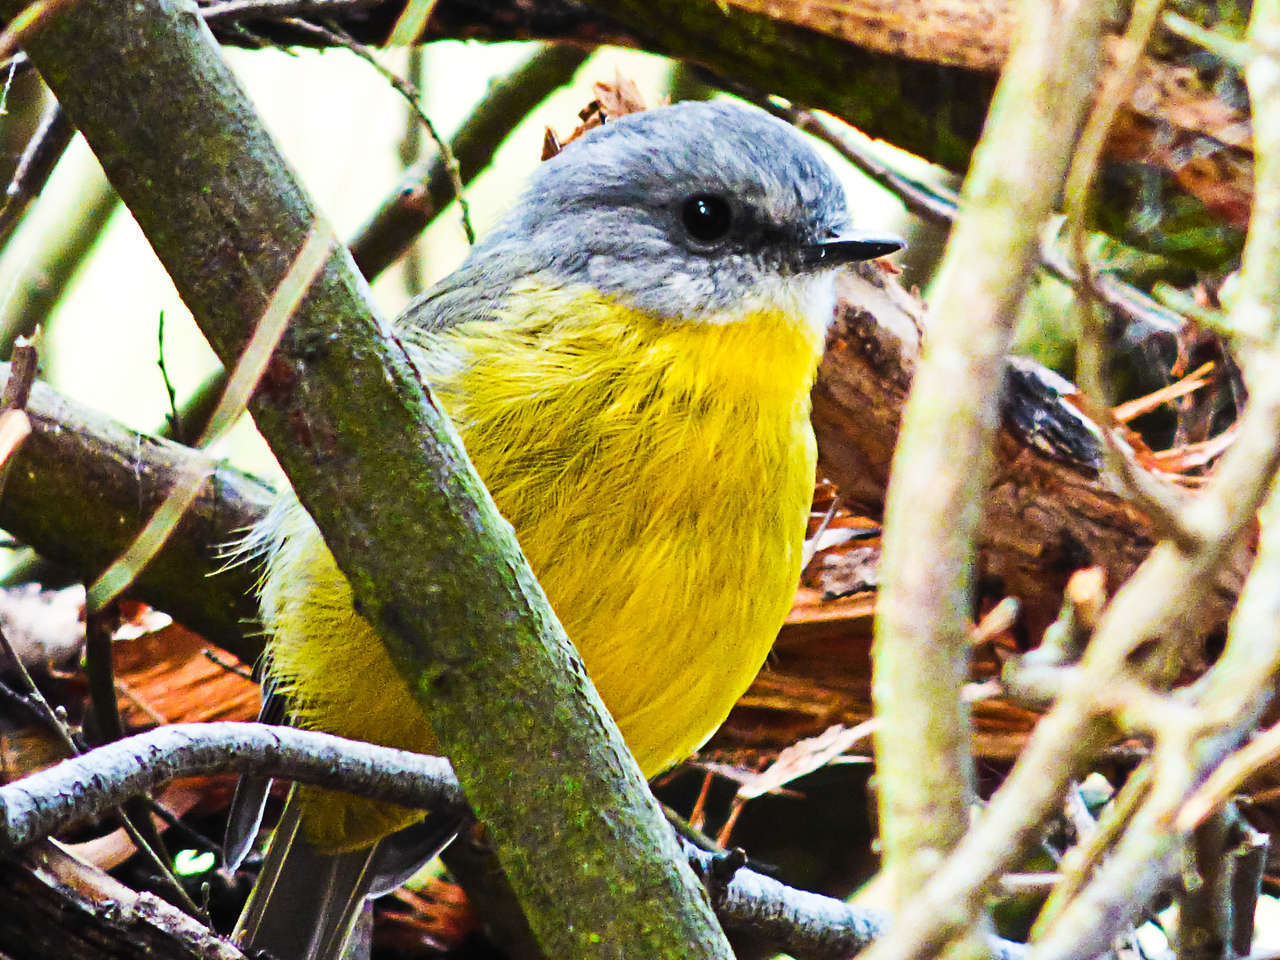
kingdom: Animalia
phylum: Chordata
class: Aves
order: Passeriformes
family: Petroicidae
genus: Eopsaltria
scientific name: Eopsaltria australis
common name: Eastern yellow robin
